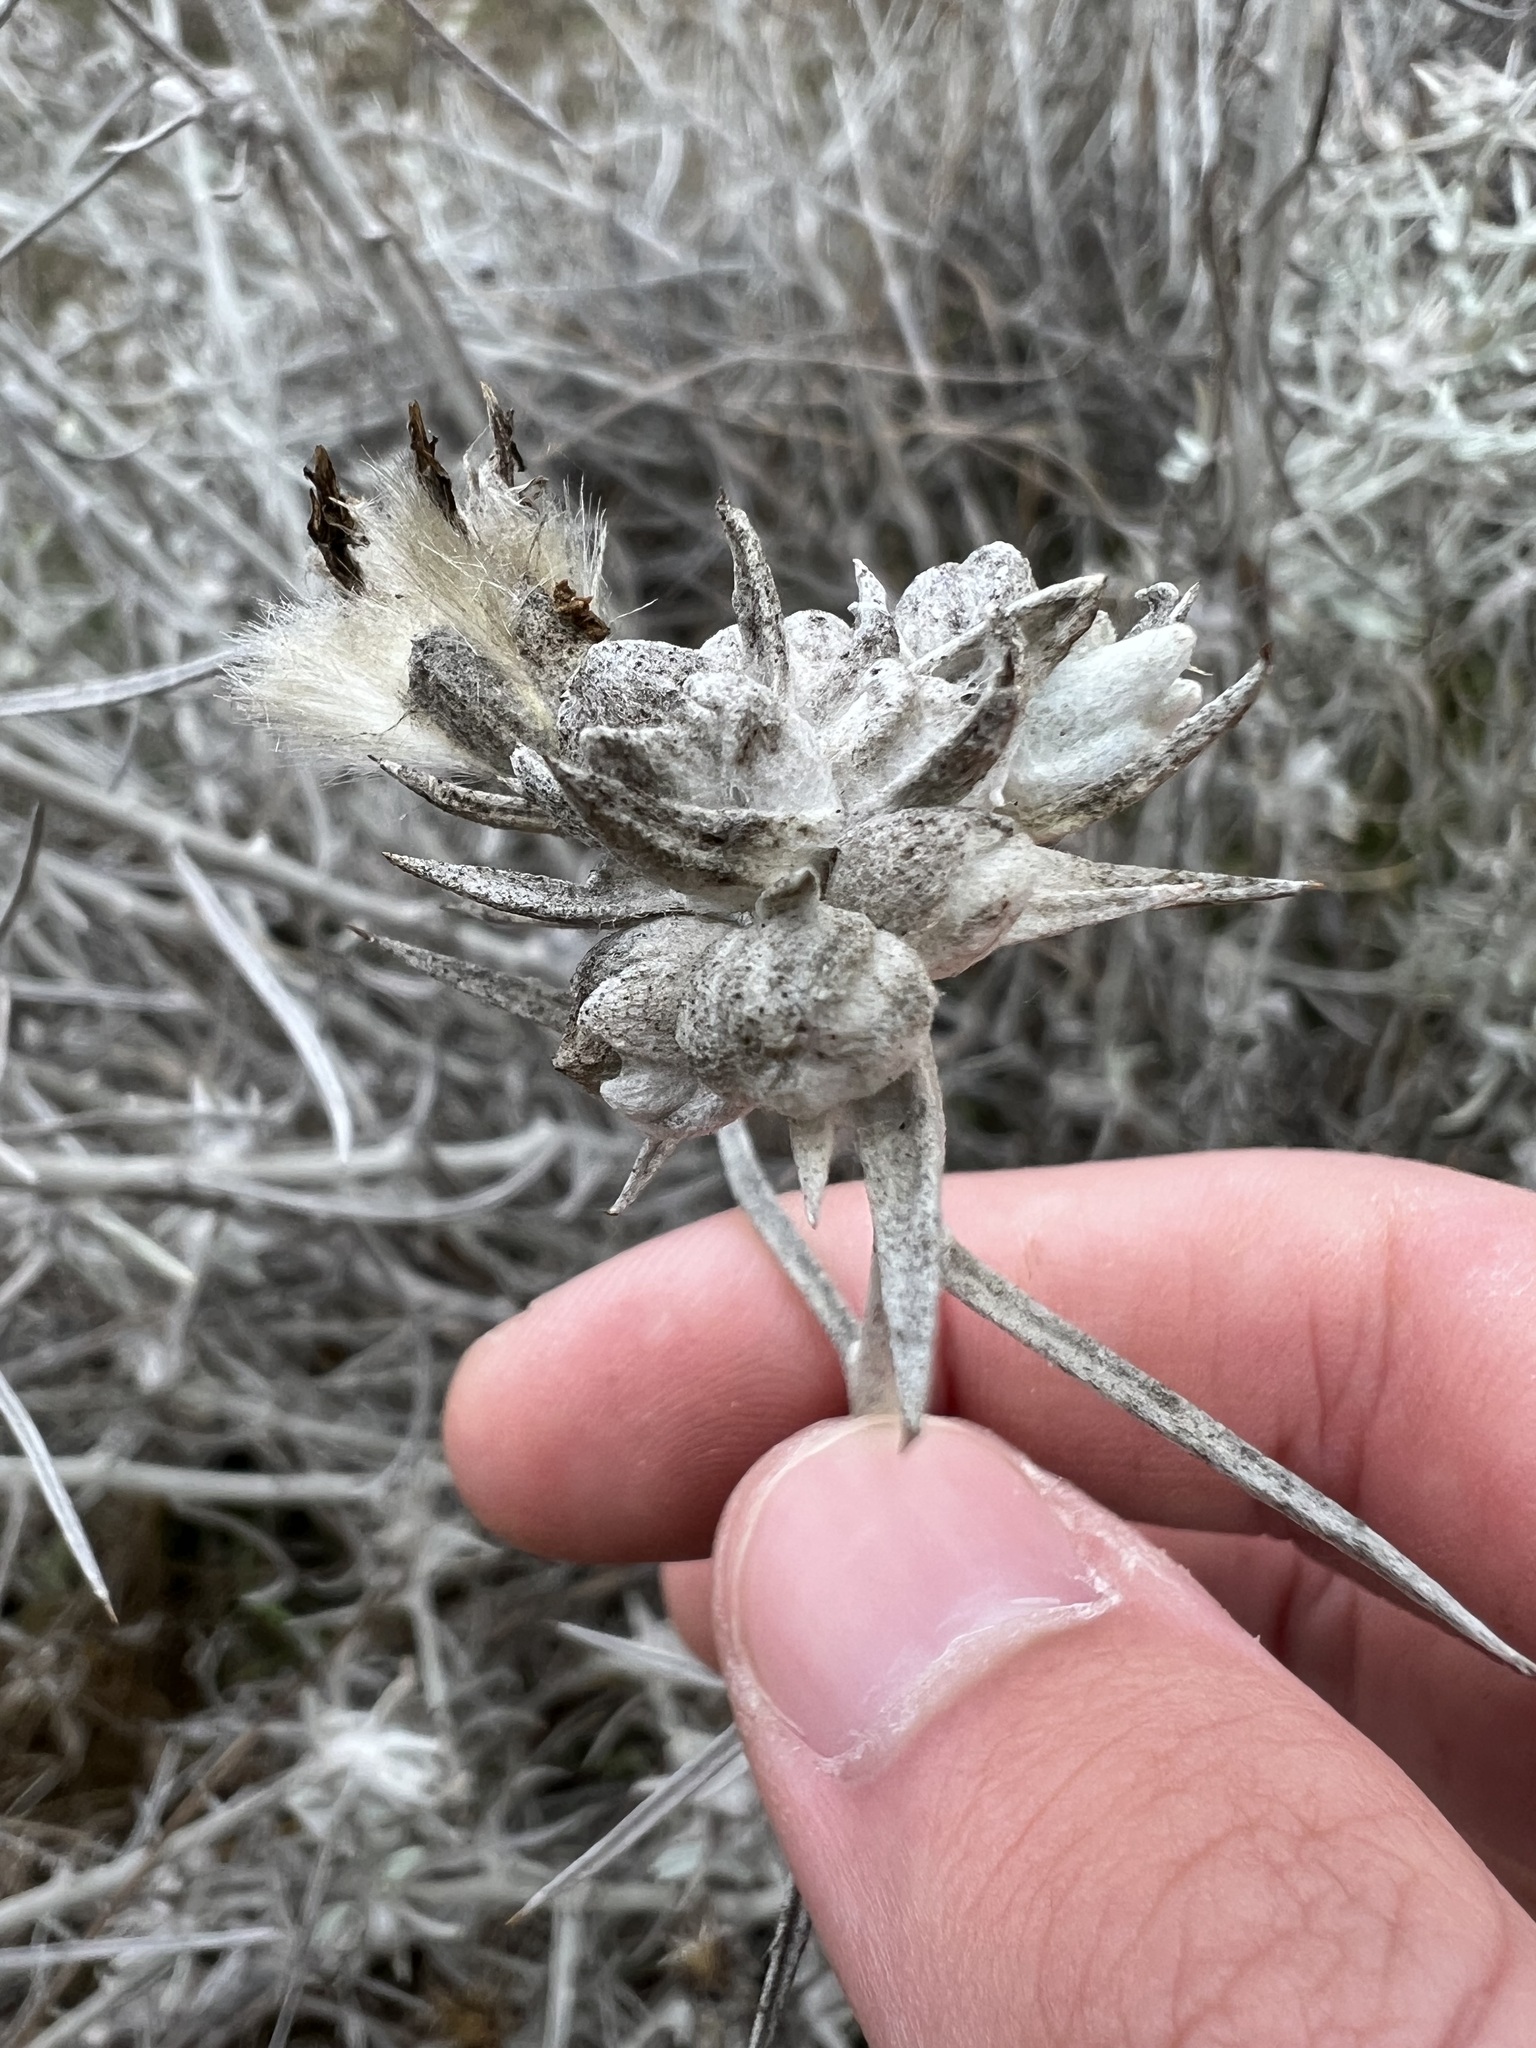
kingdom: Plantae
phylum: Tracheophyta
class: Magnoliopsida
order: Asterales
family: Asteraceae
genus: Tetradymia
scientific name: Tetradymia comosa
